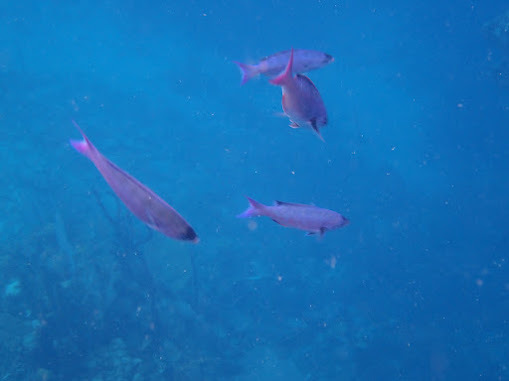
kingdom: Animalia
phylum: Chordata
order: Perciformes
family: Labridae
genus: Bodianus
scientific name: Bodianus
